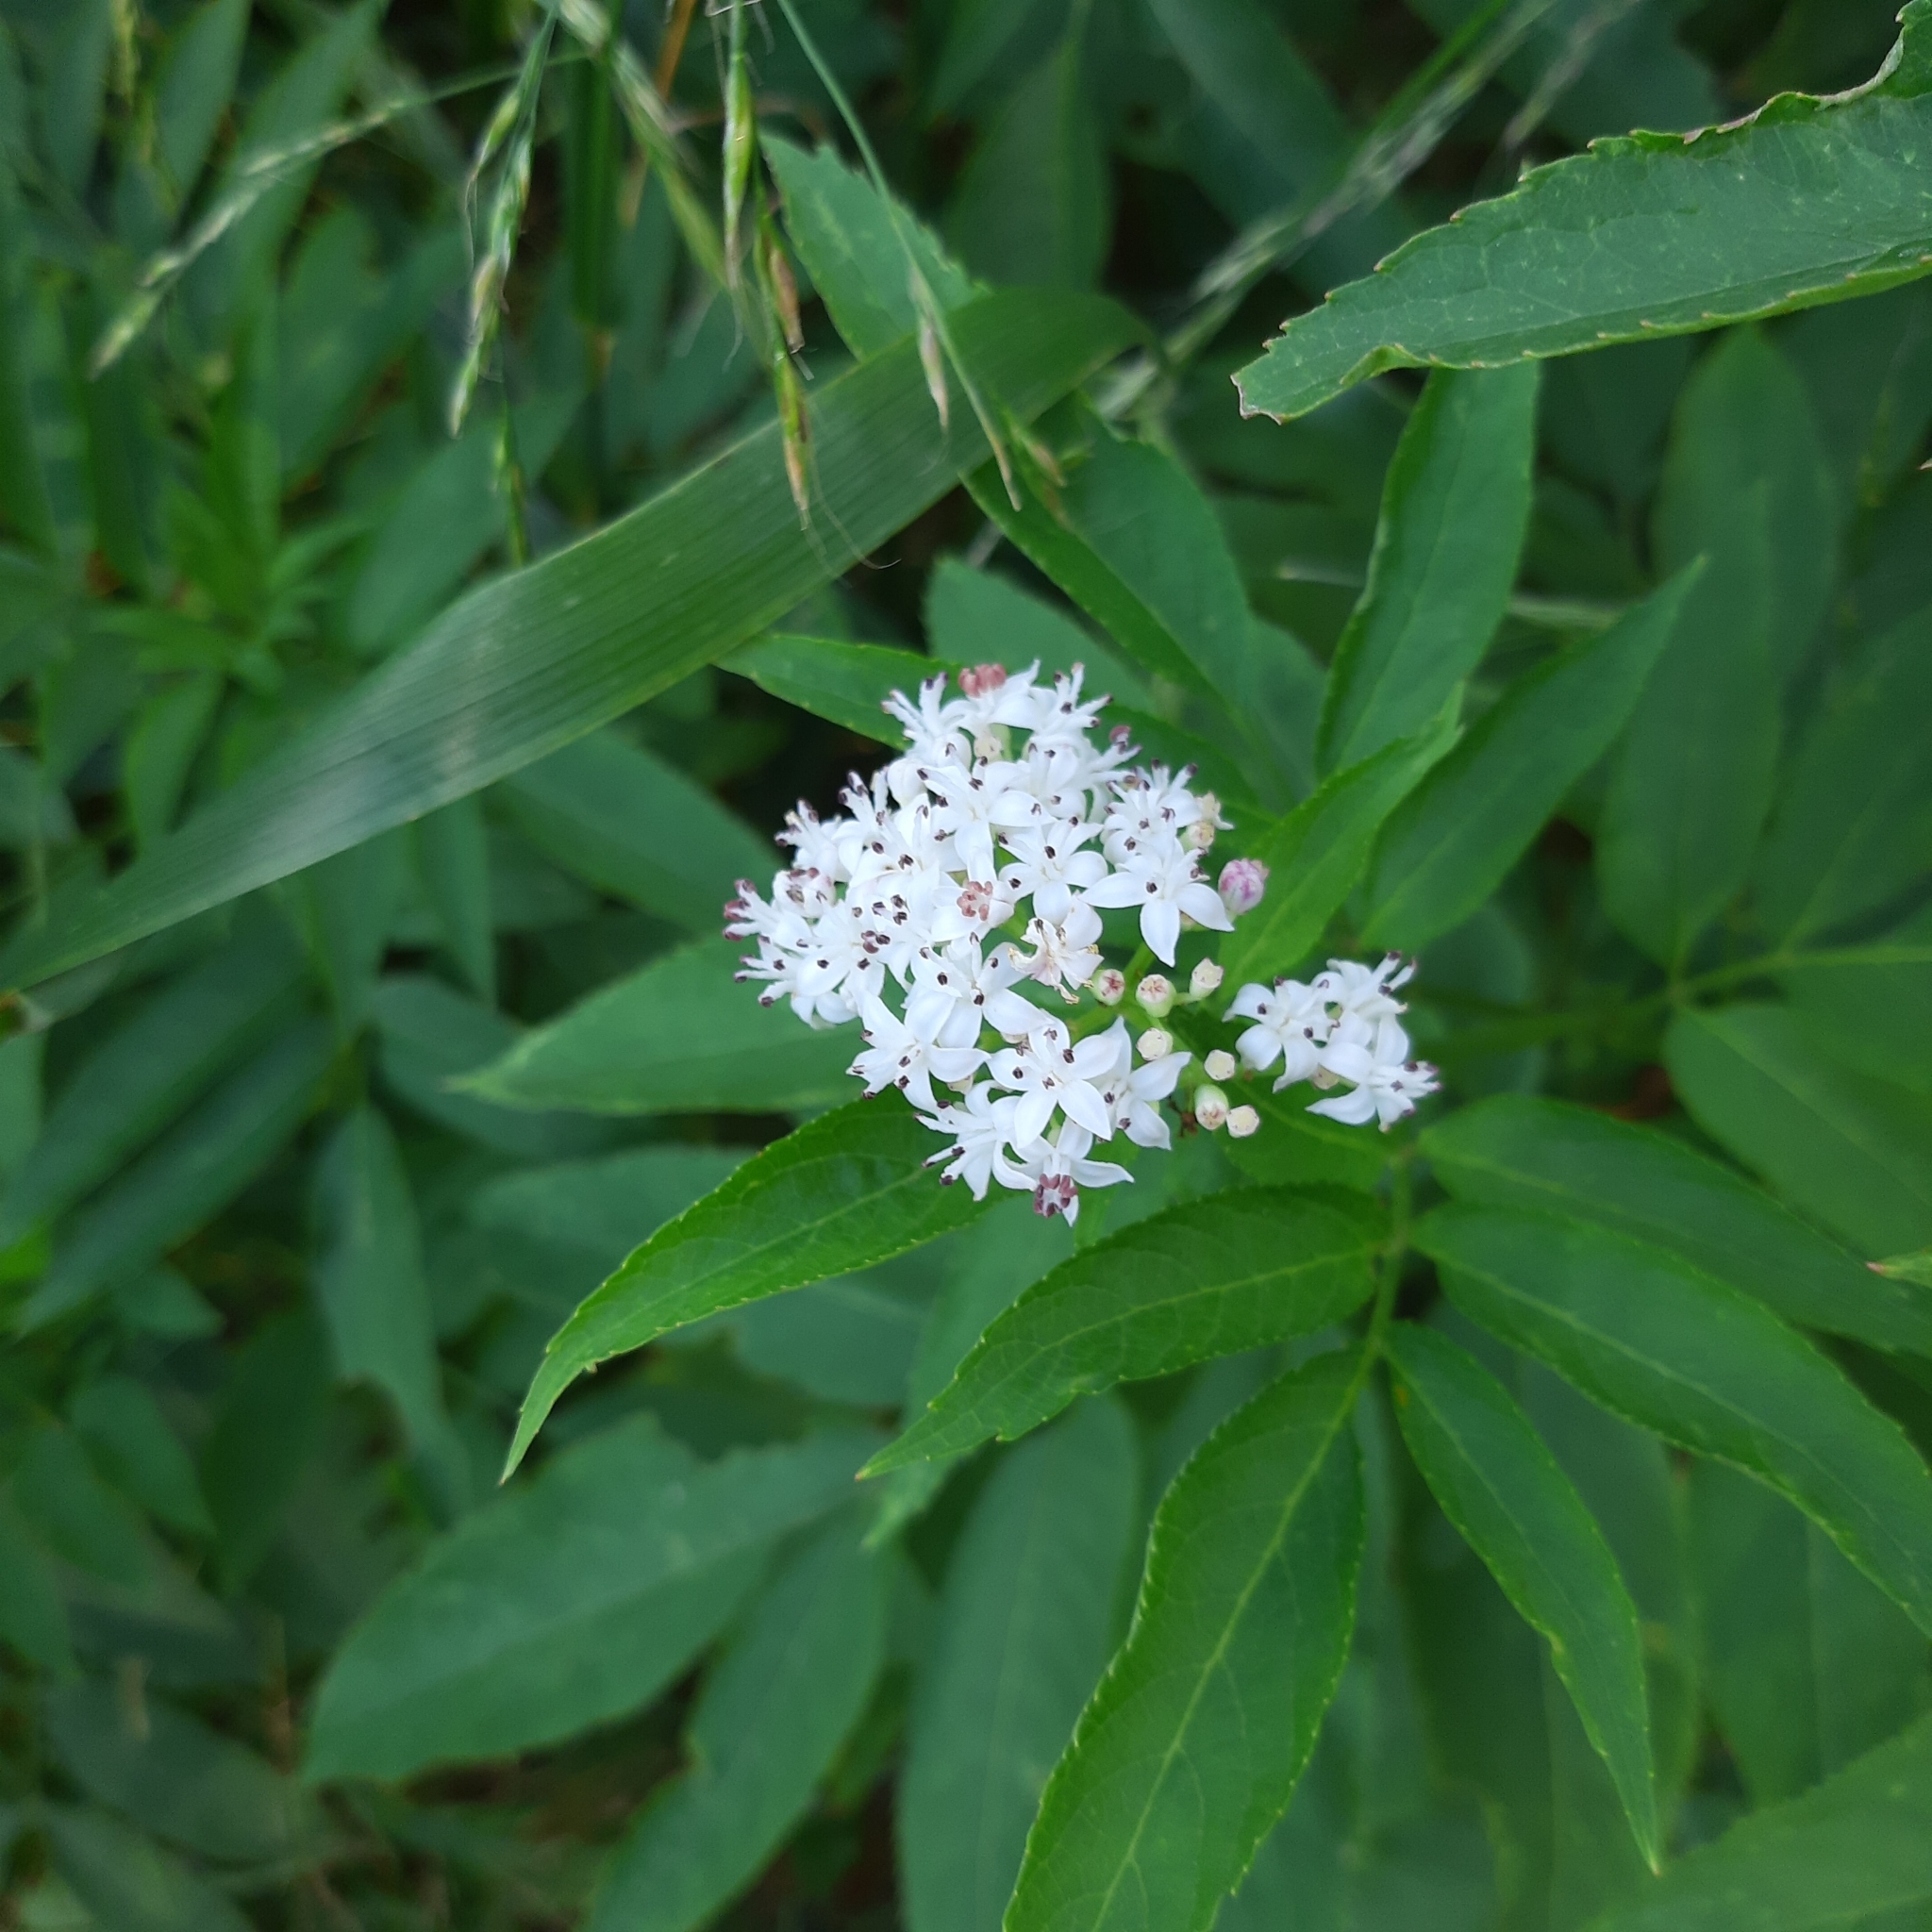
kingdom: Plantae
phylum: Tracheophyta
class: Magnoliopsida
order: Dipsacales
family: Viburnaceae
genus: Sambucus
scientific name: Sambucus ebulus
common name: Dwarf elder
